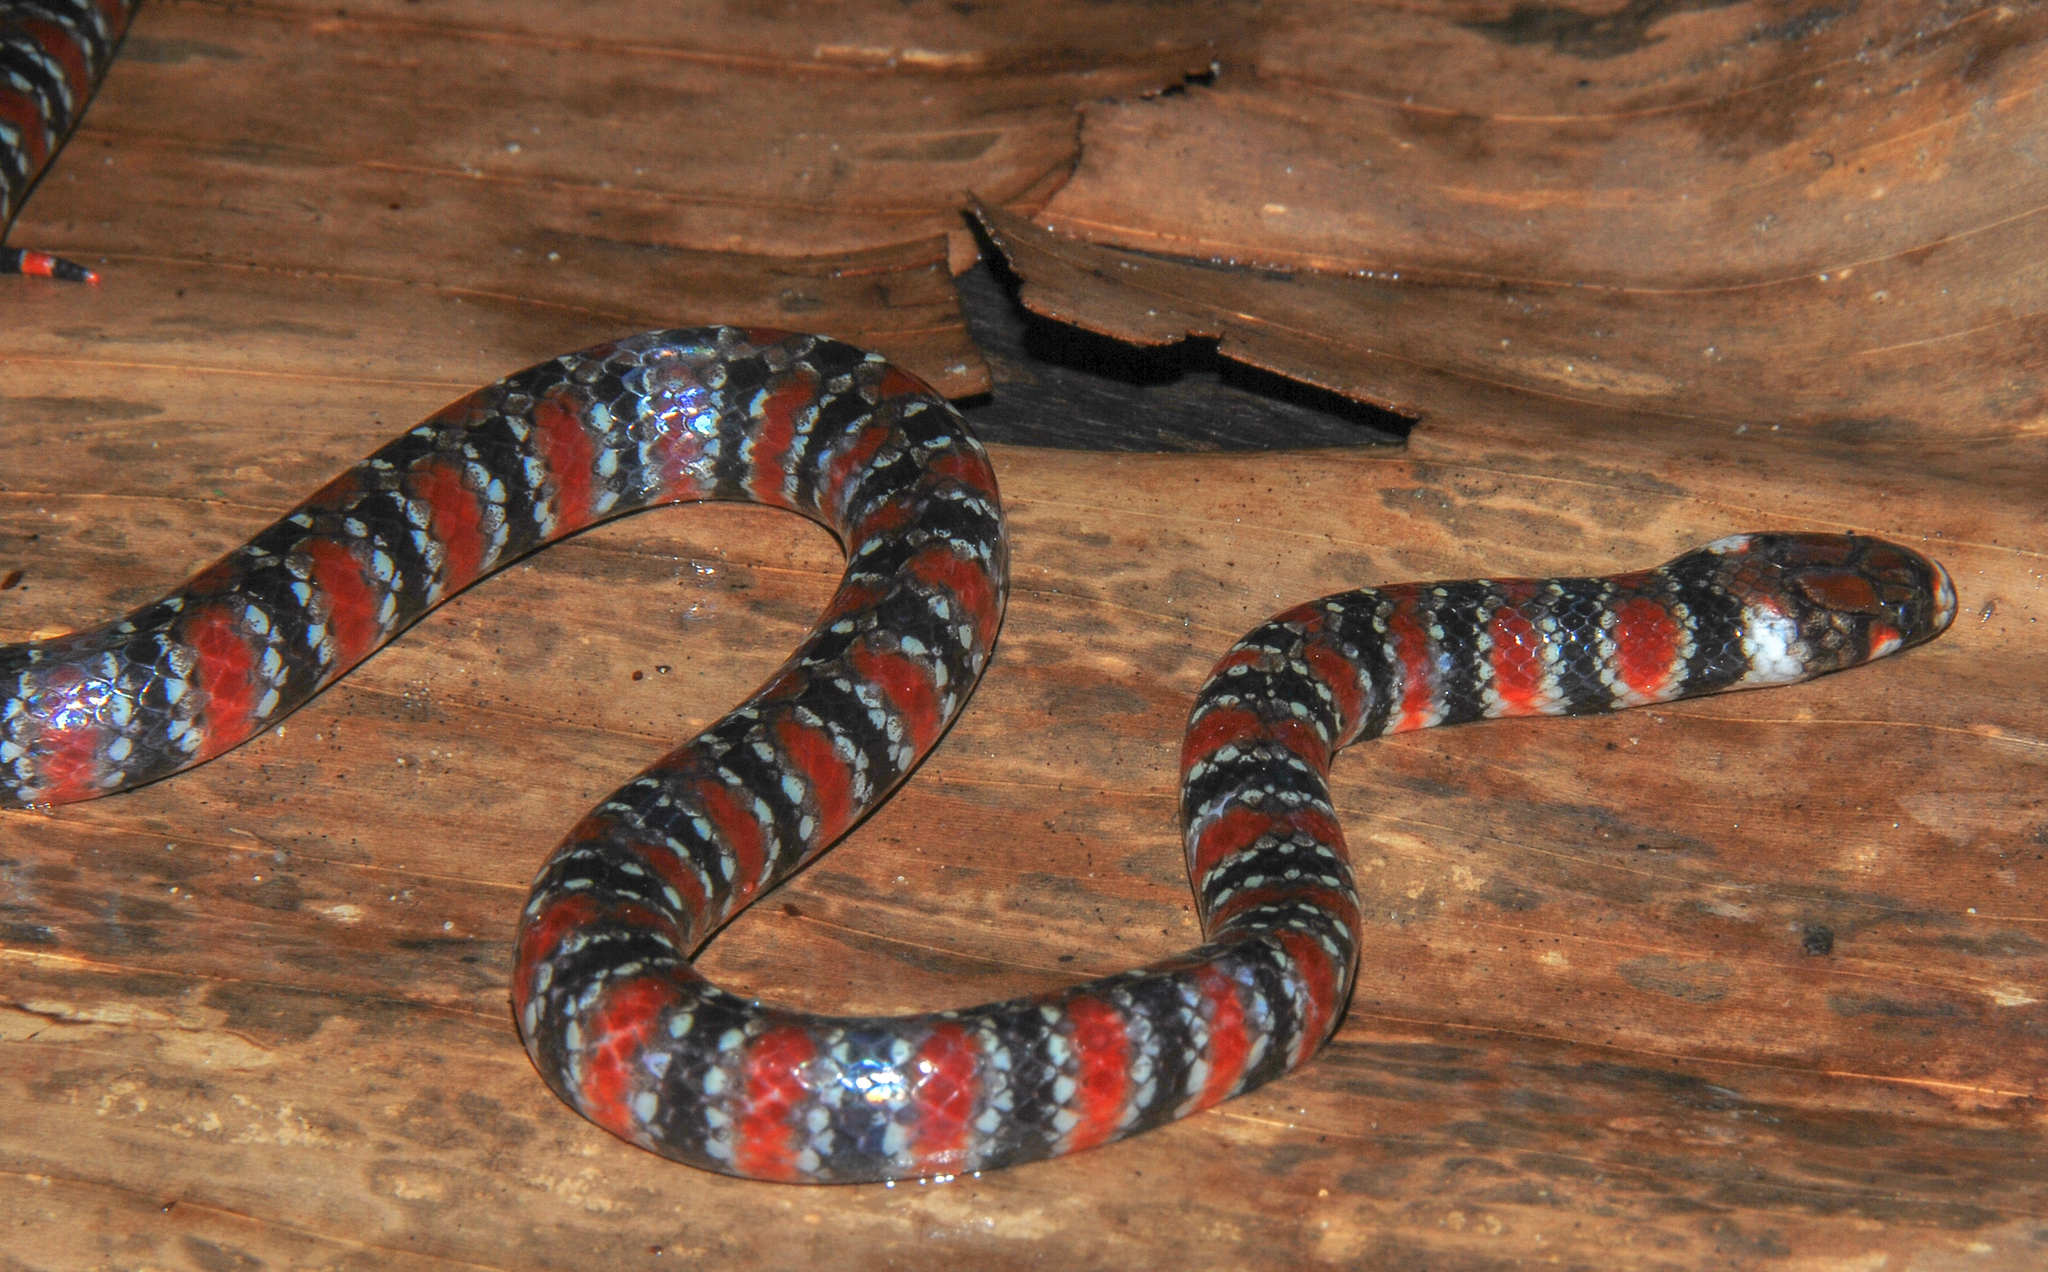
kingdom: Animalia
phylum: Chordata
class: Squamata
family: Colubridae
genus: Hydrops
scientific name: Hydrops martii
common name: Amazon water snake
